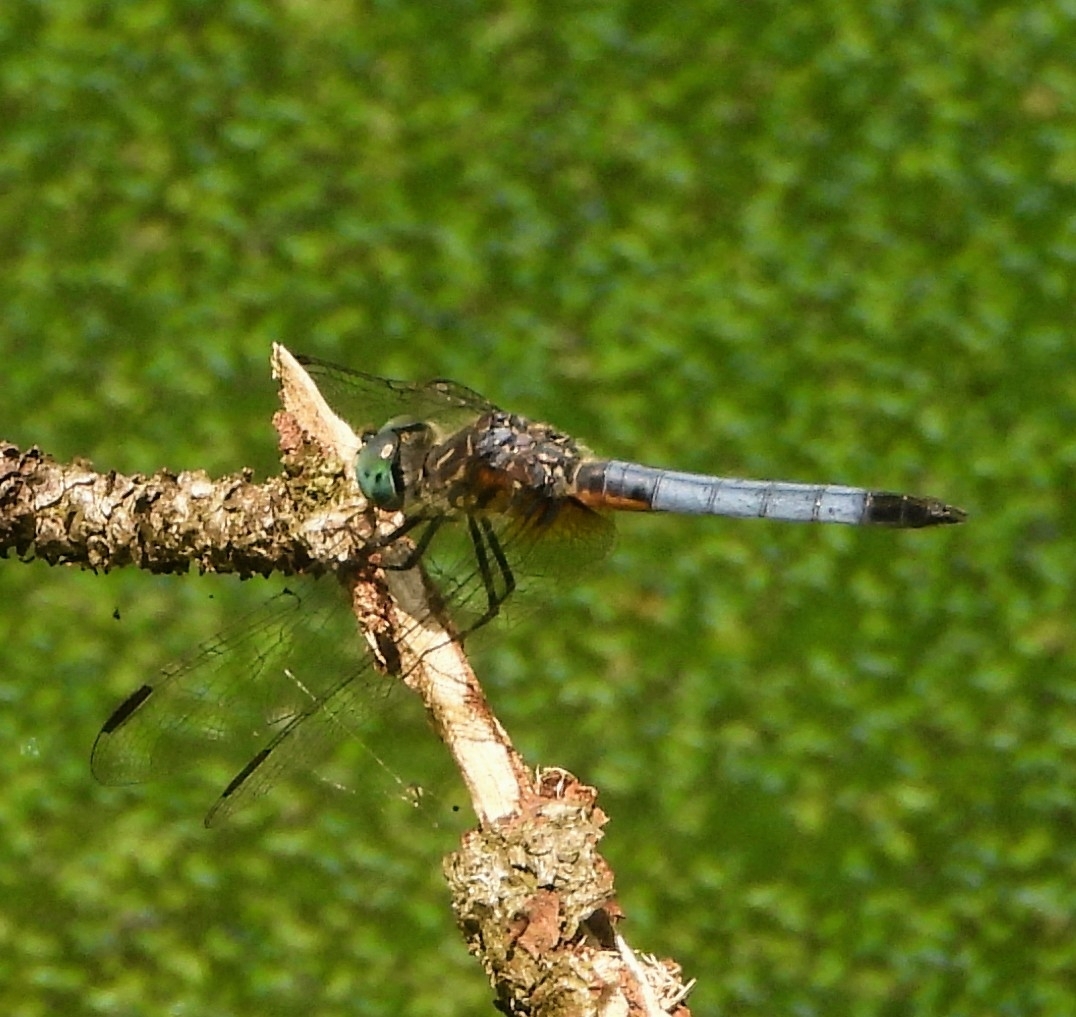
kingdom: Animalia
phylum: Arthropoda
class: Insecta
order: Odonata
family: Libellulidae
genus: Pachydiplax
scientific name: Pachydiplax longipennis
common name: Blue dasher
